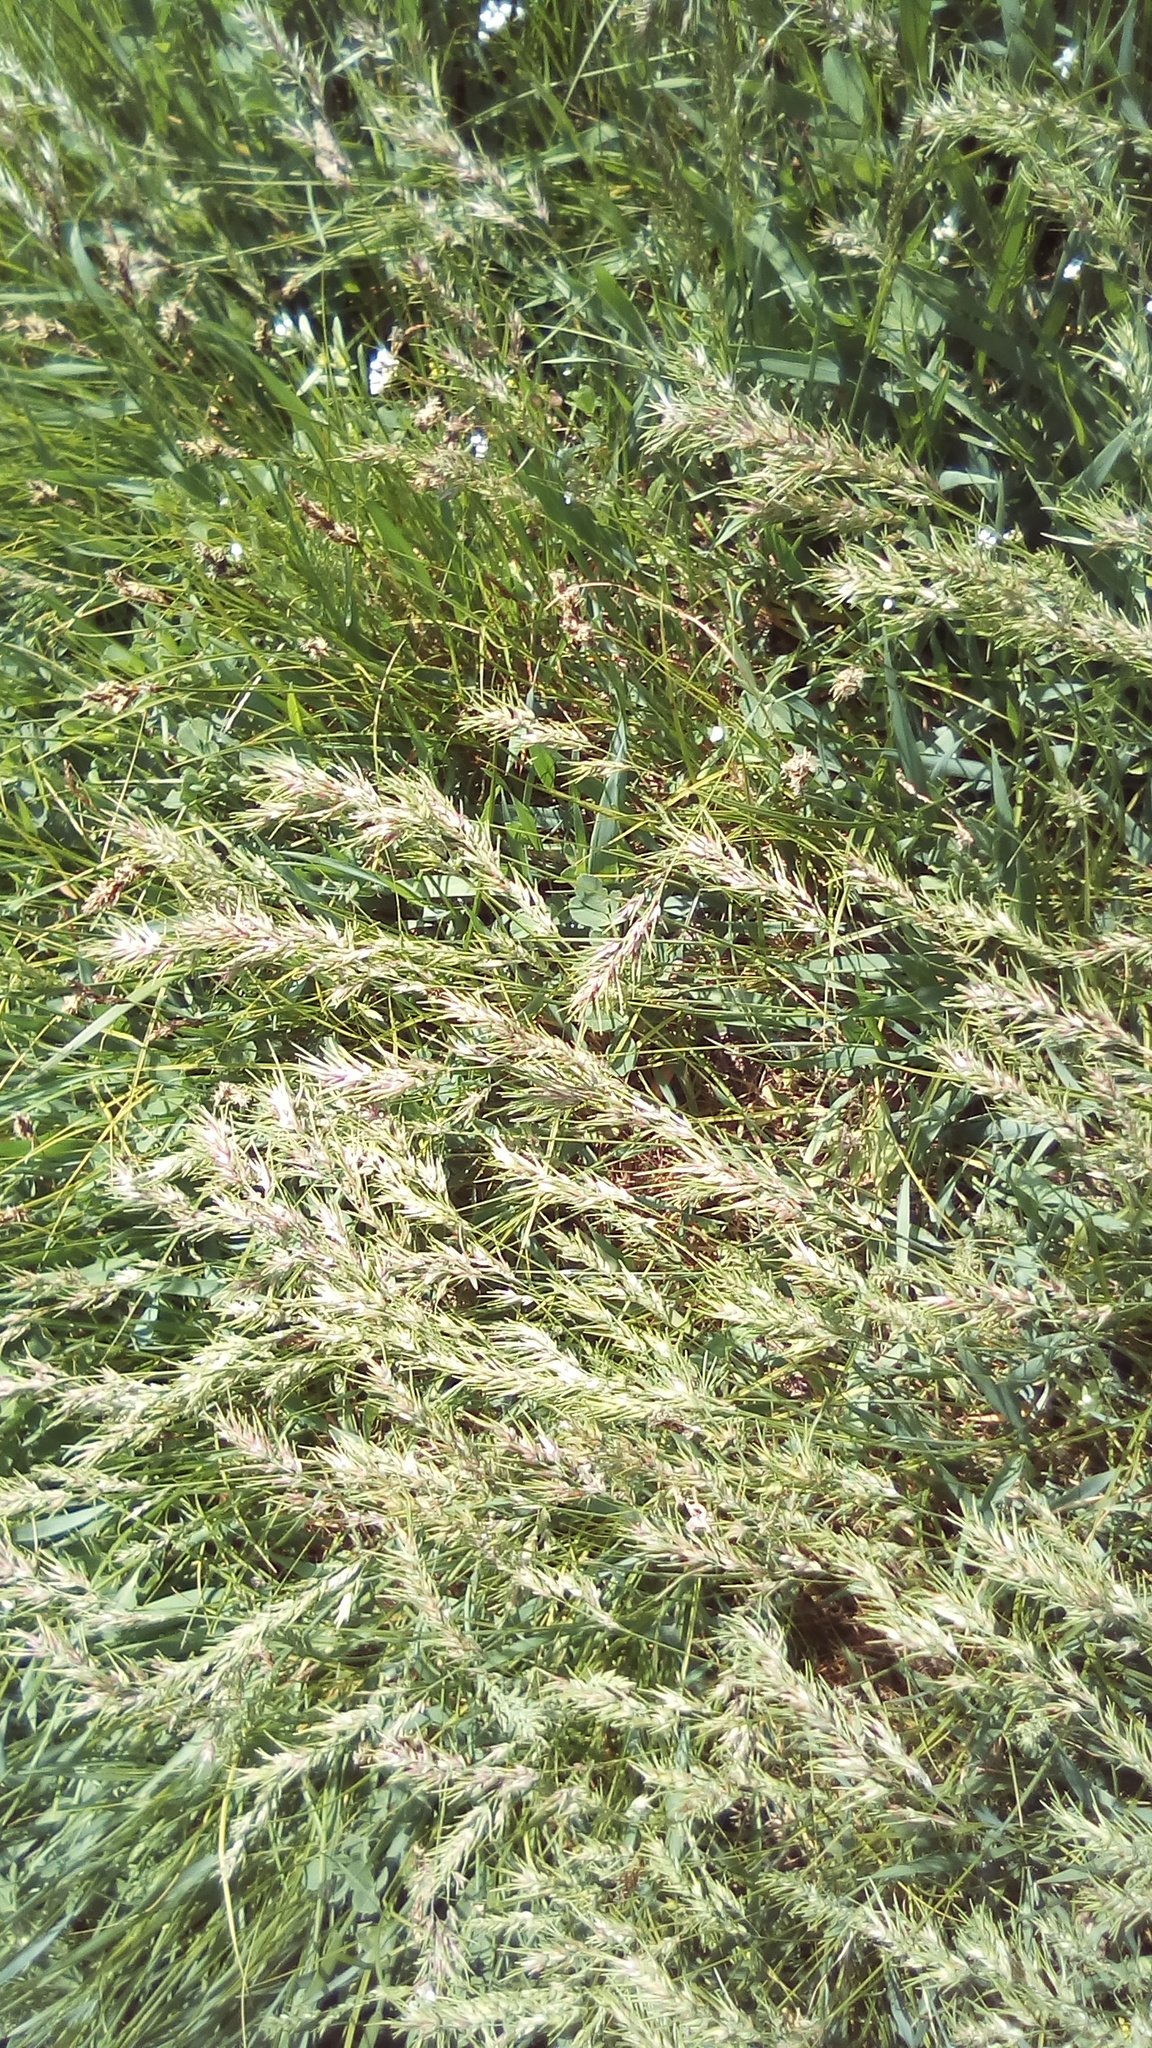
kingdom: Plantae
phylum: Tracheophyta
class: Liliopsida
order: Poales
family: Poaceae
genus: Poa
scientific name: Poa bulbosa
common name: Bulbous bluegrass
